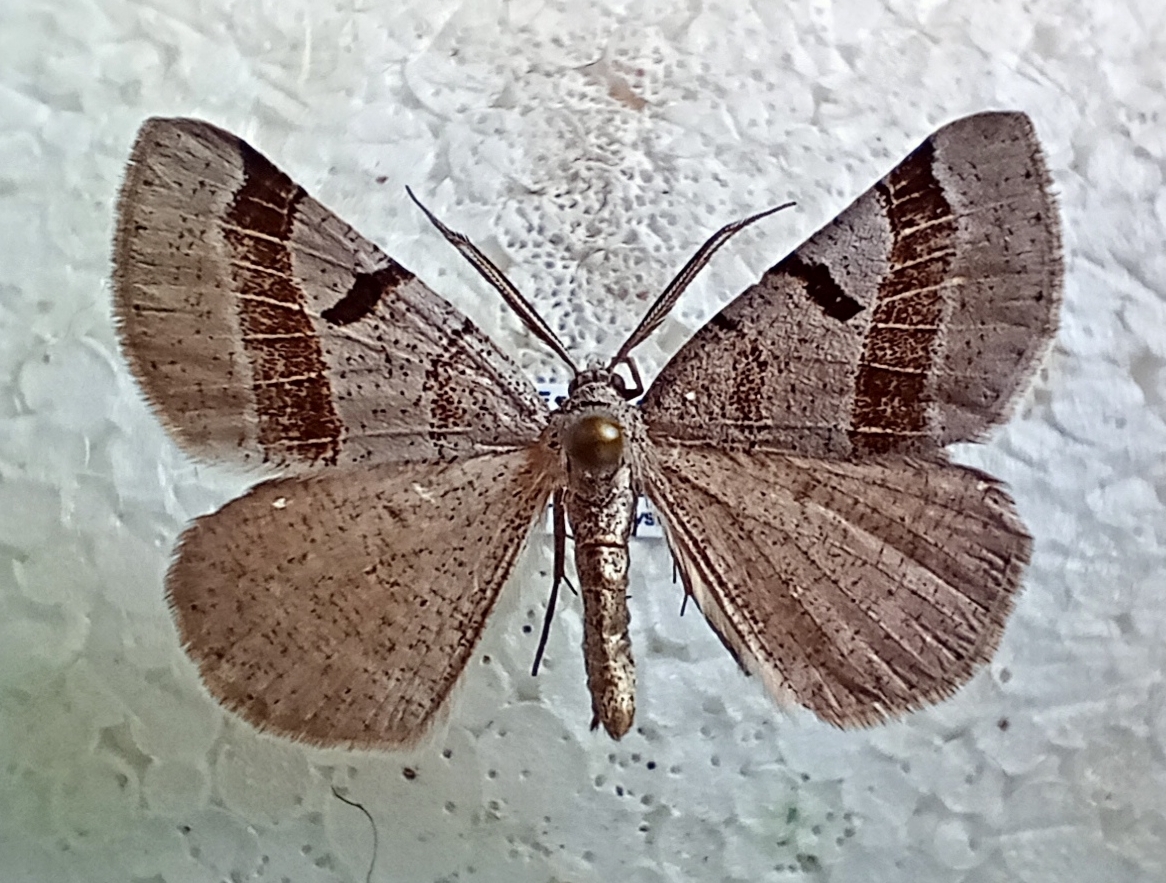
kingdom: Animalia
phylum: Arthropoda
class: Insecta
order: Lepidoptera
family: Geometridae
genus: Itame
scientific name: Itame vincularia
